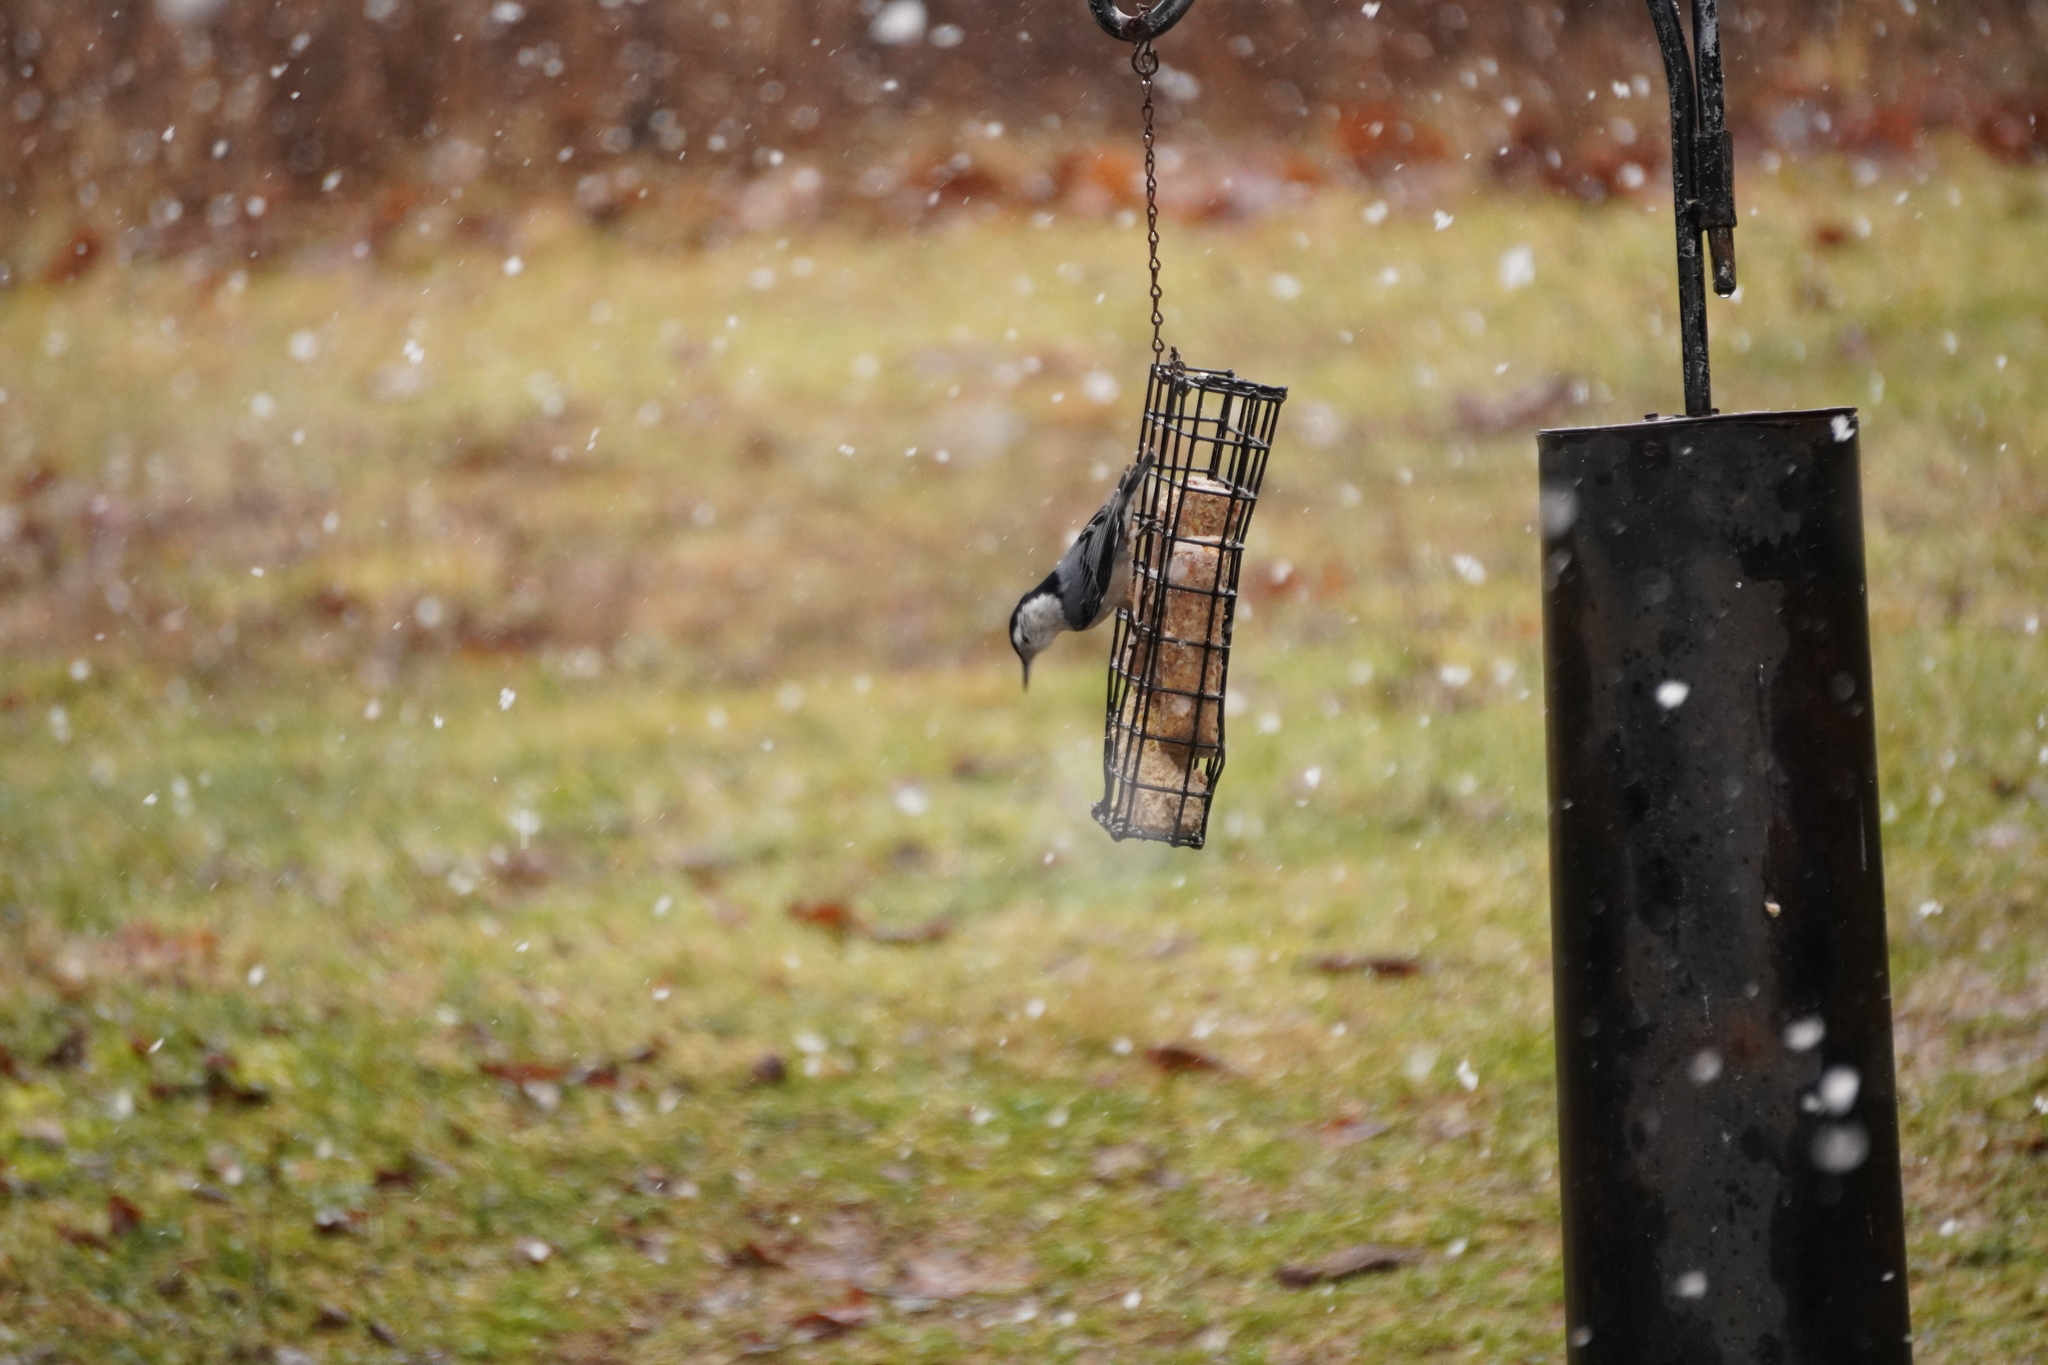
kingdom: Animalia
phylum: Chordata
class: Aves
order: Passeriformes
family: Sittidae
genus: Sitta
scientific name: Sitta carolinensis
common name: White-breasted nuthatch
